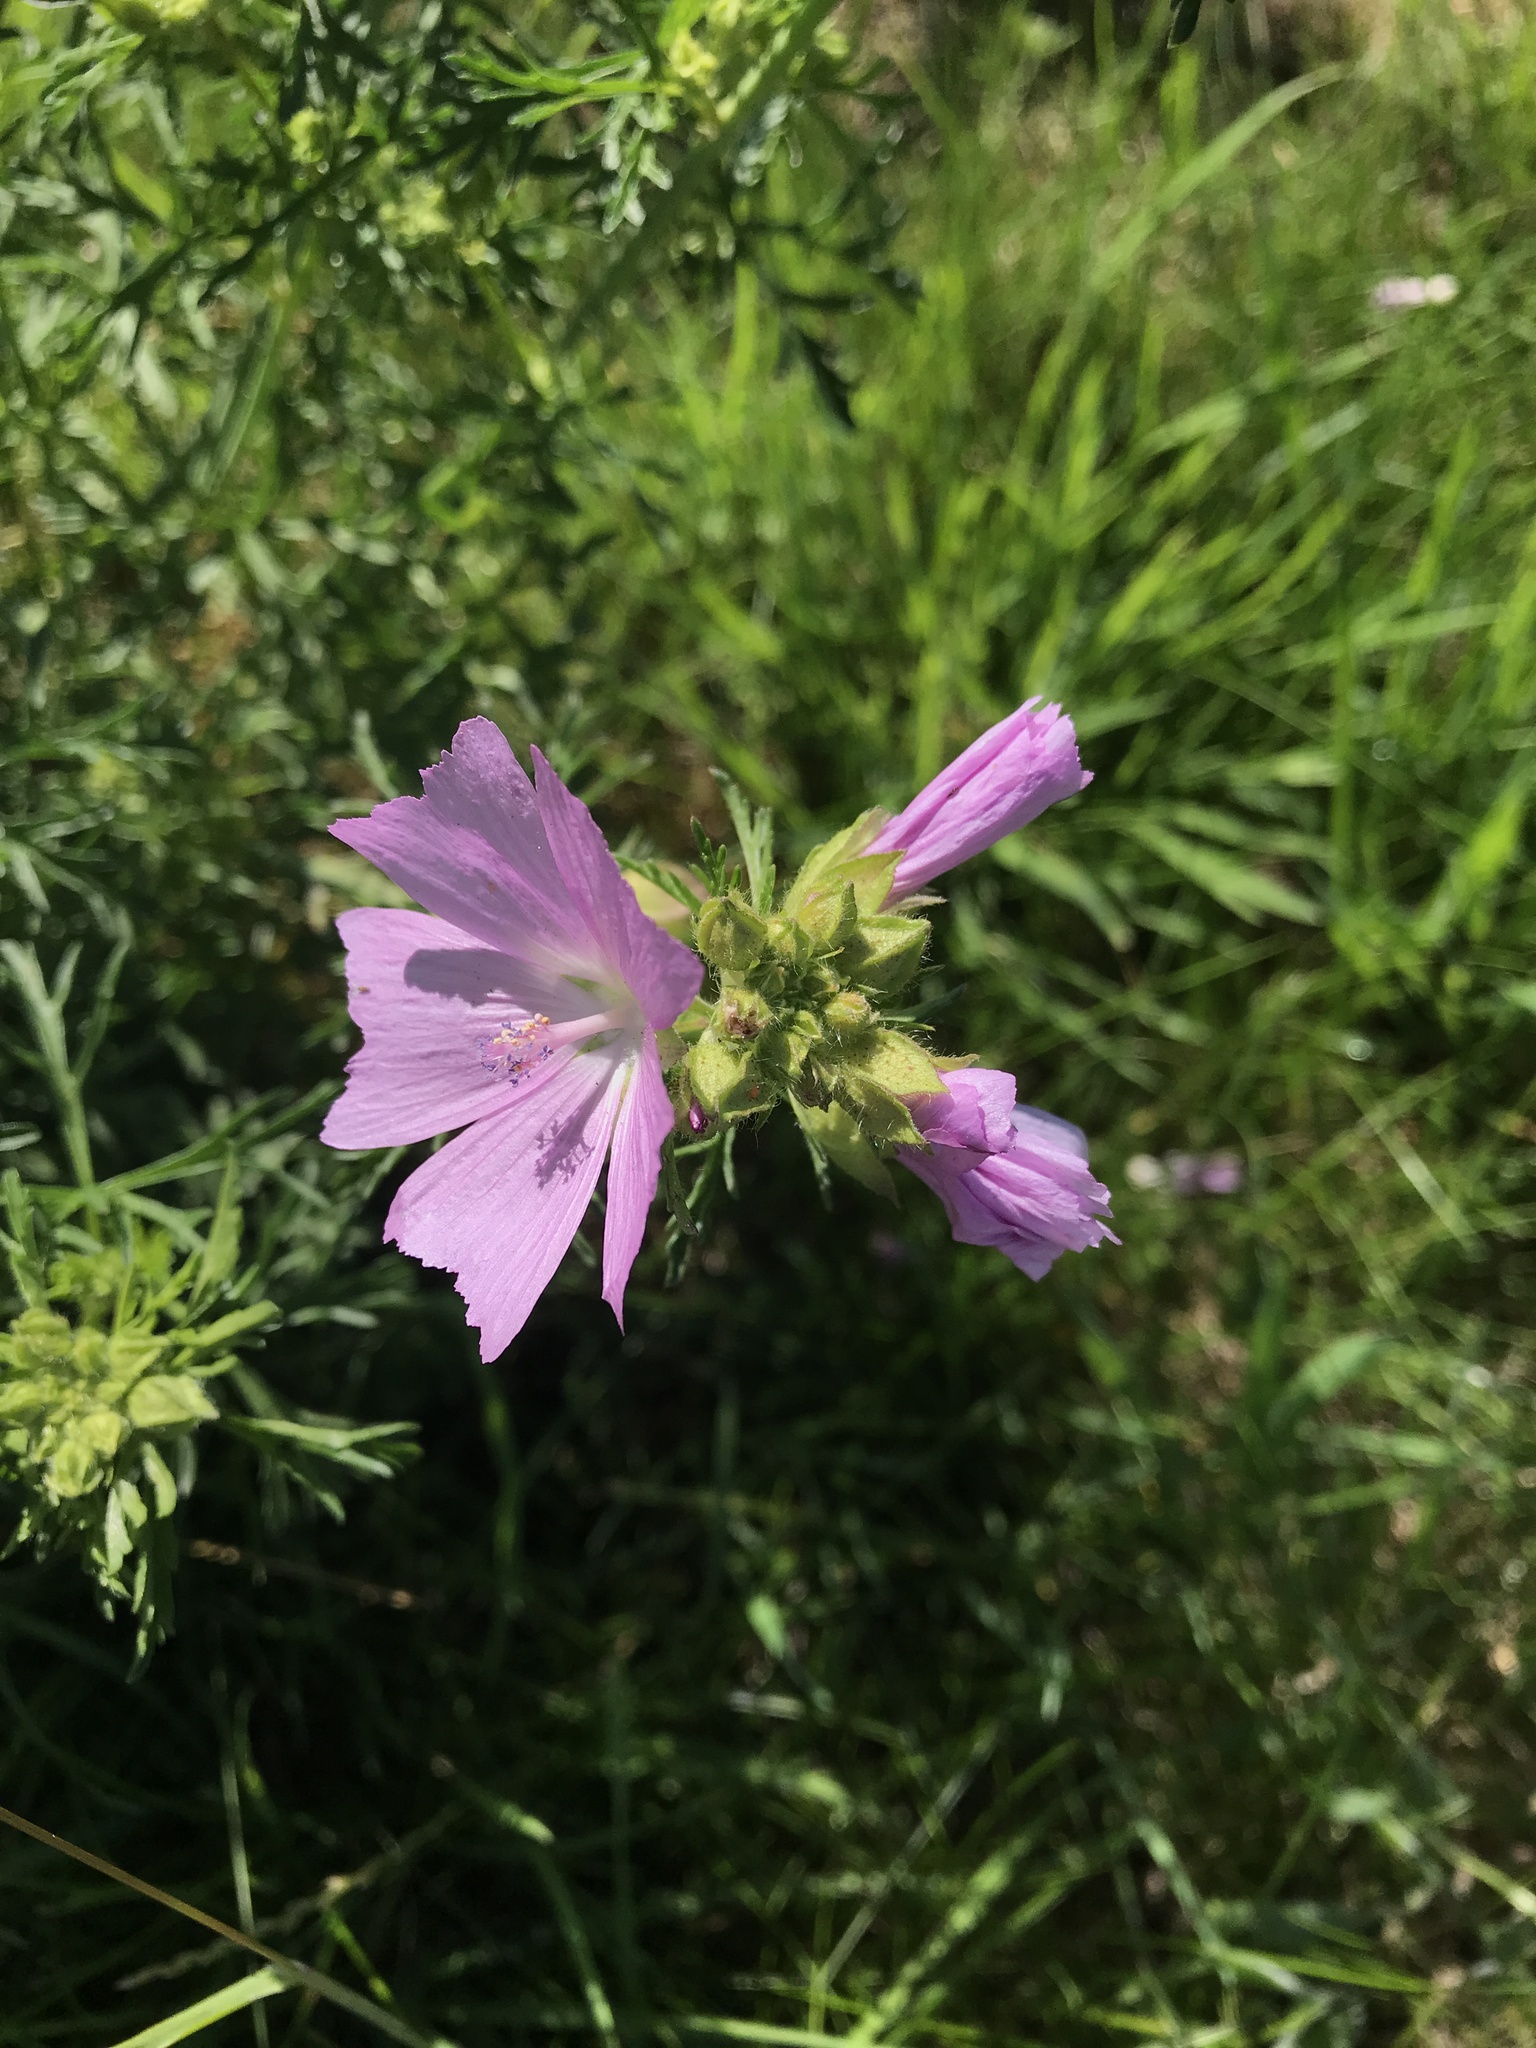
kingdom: Plantae
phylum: Tracheophyta
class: Magnoliopsida
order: Malvales
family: Malvaceae
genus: Malva
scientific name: Malva moschata
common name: Musk mallow
